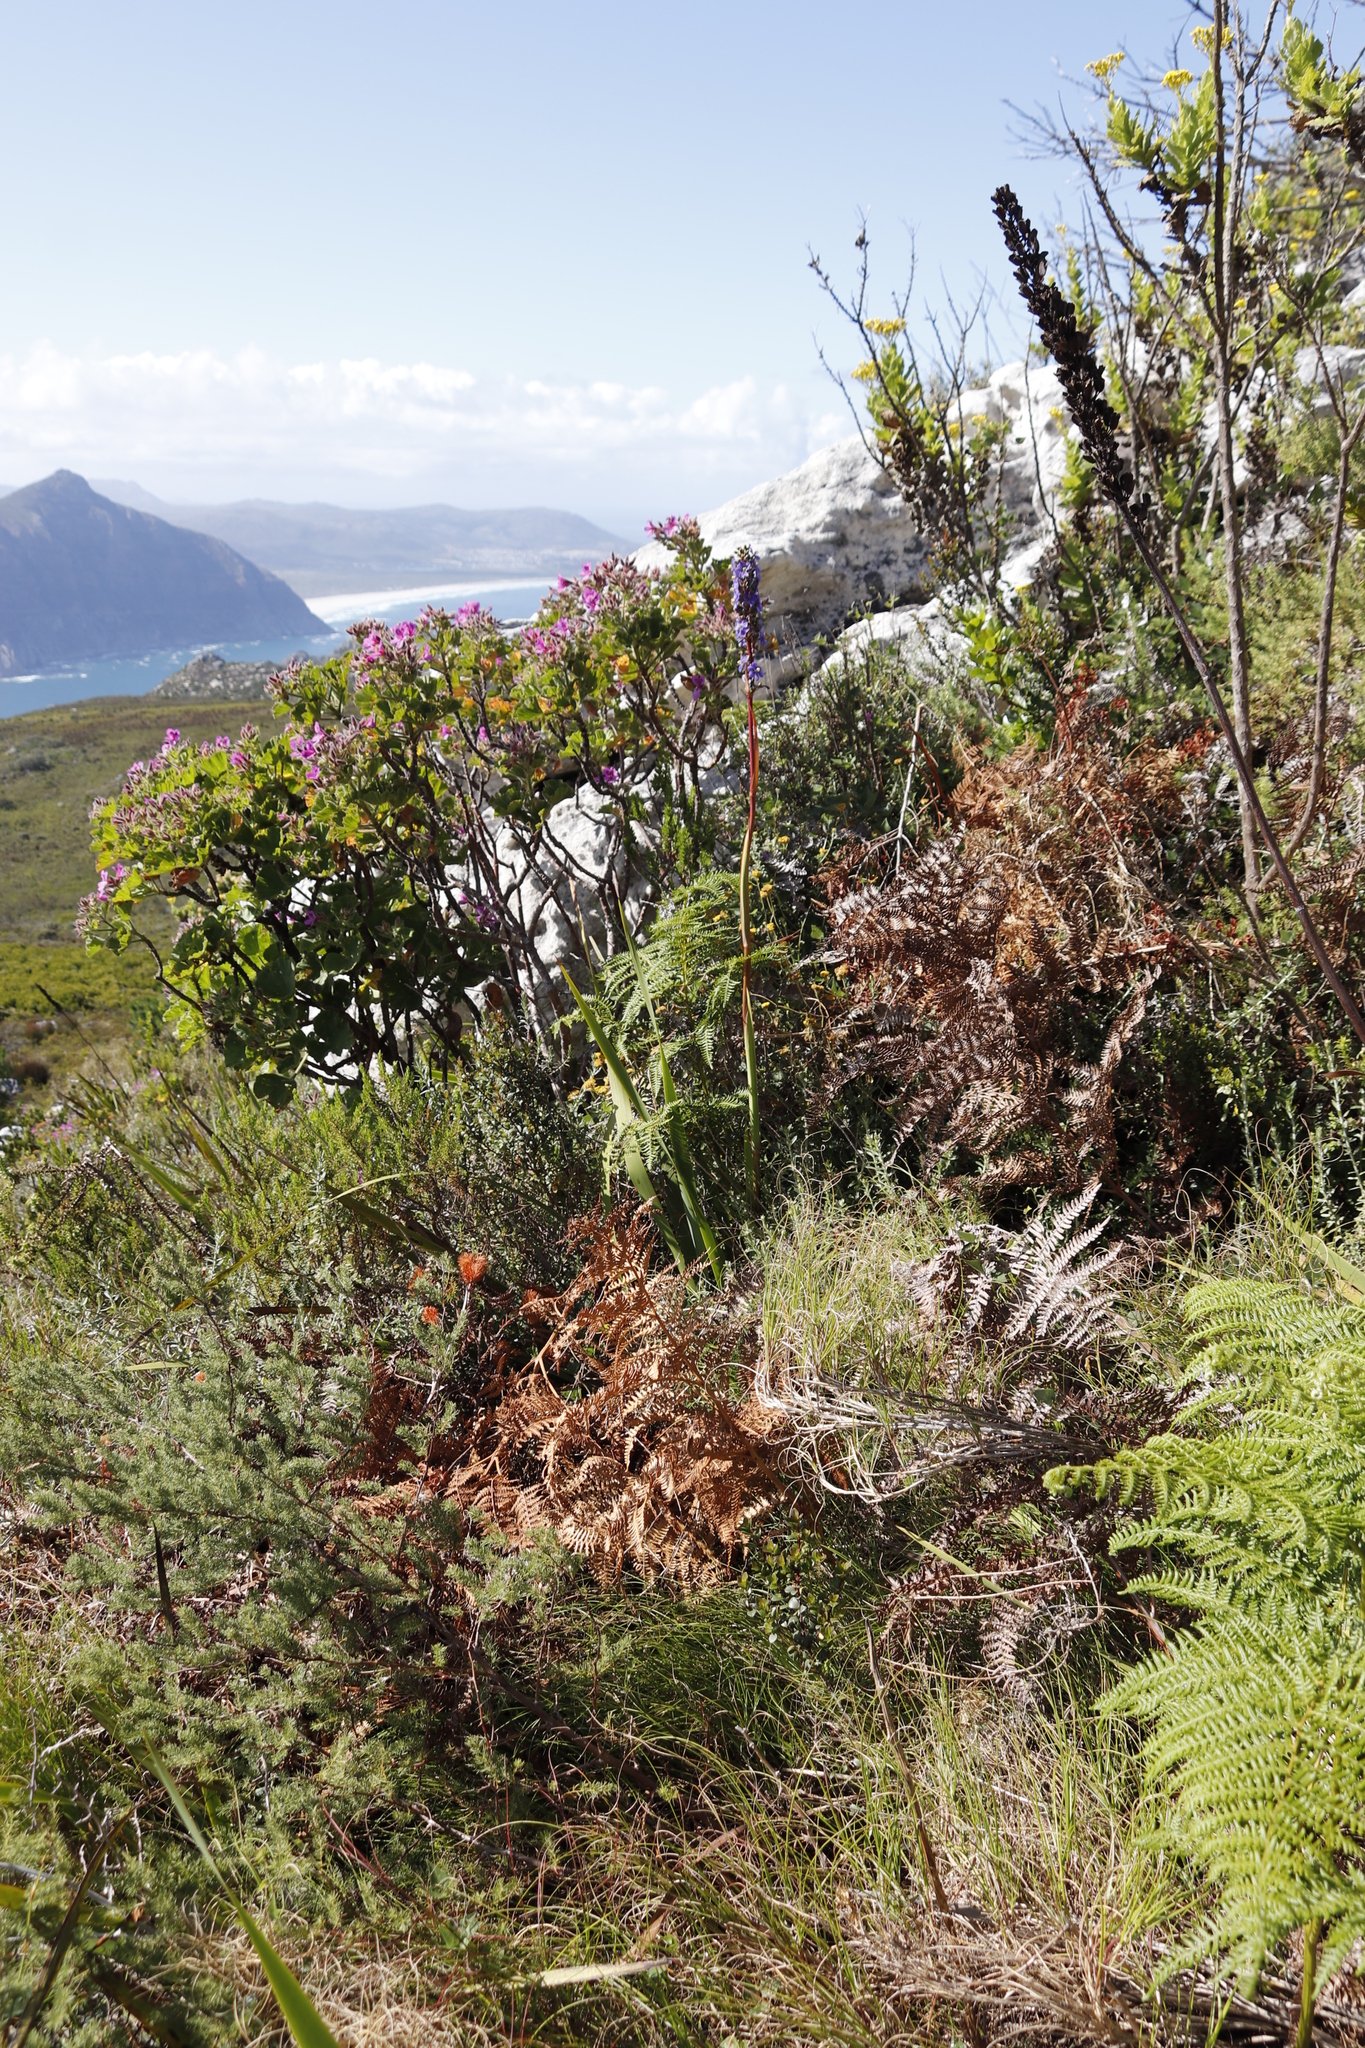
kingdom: Plantae
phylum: Tracheophyta
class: Liliopsida
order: Asparagales
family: Iridaceae
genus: Aristea
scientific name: Aristea capitata
